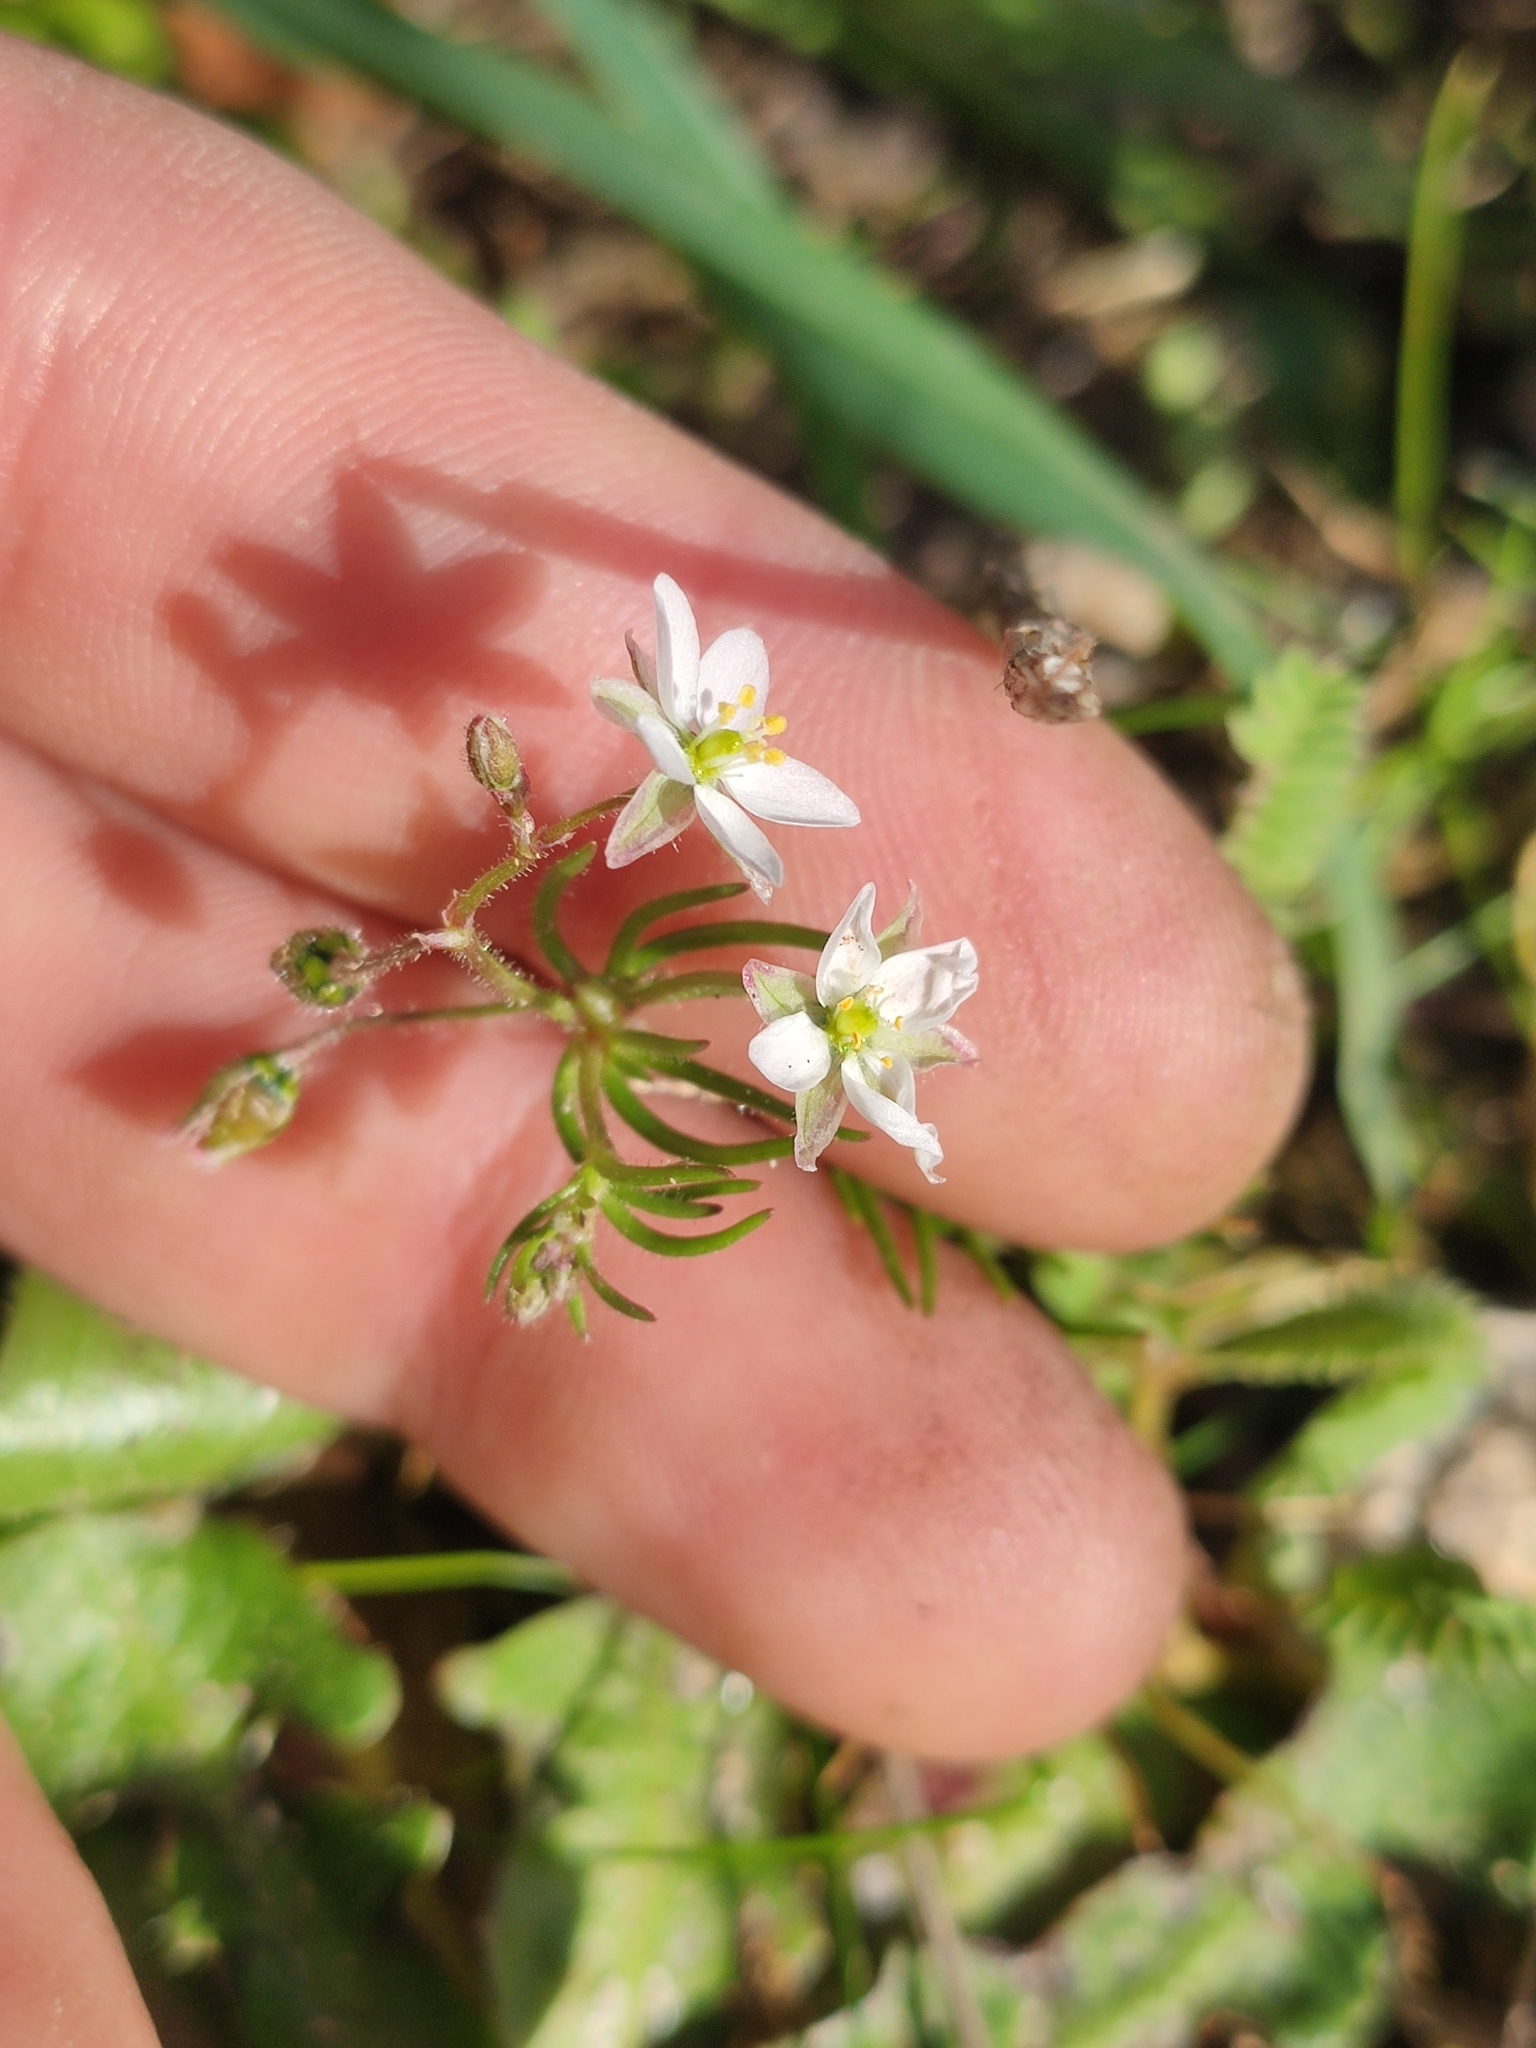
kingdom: Plantae
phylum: Tracheophyta
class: Magnoliopsida
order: Caryophyllales
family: Caryophyllaceae
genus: Spergula
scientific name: Spergula arvensis
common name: Corn spurrey
